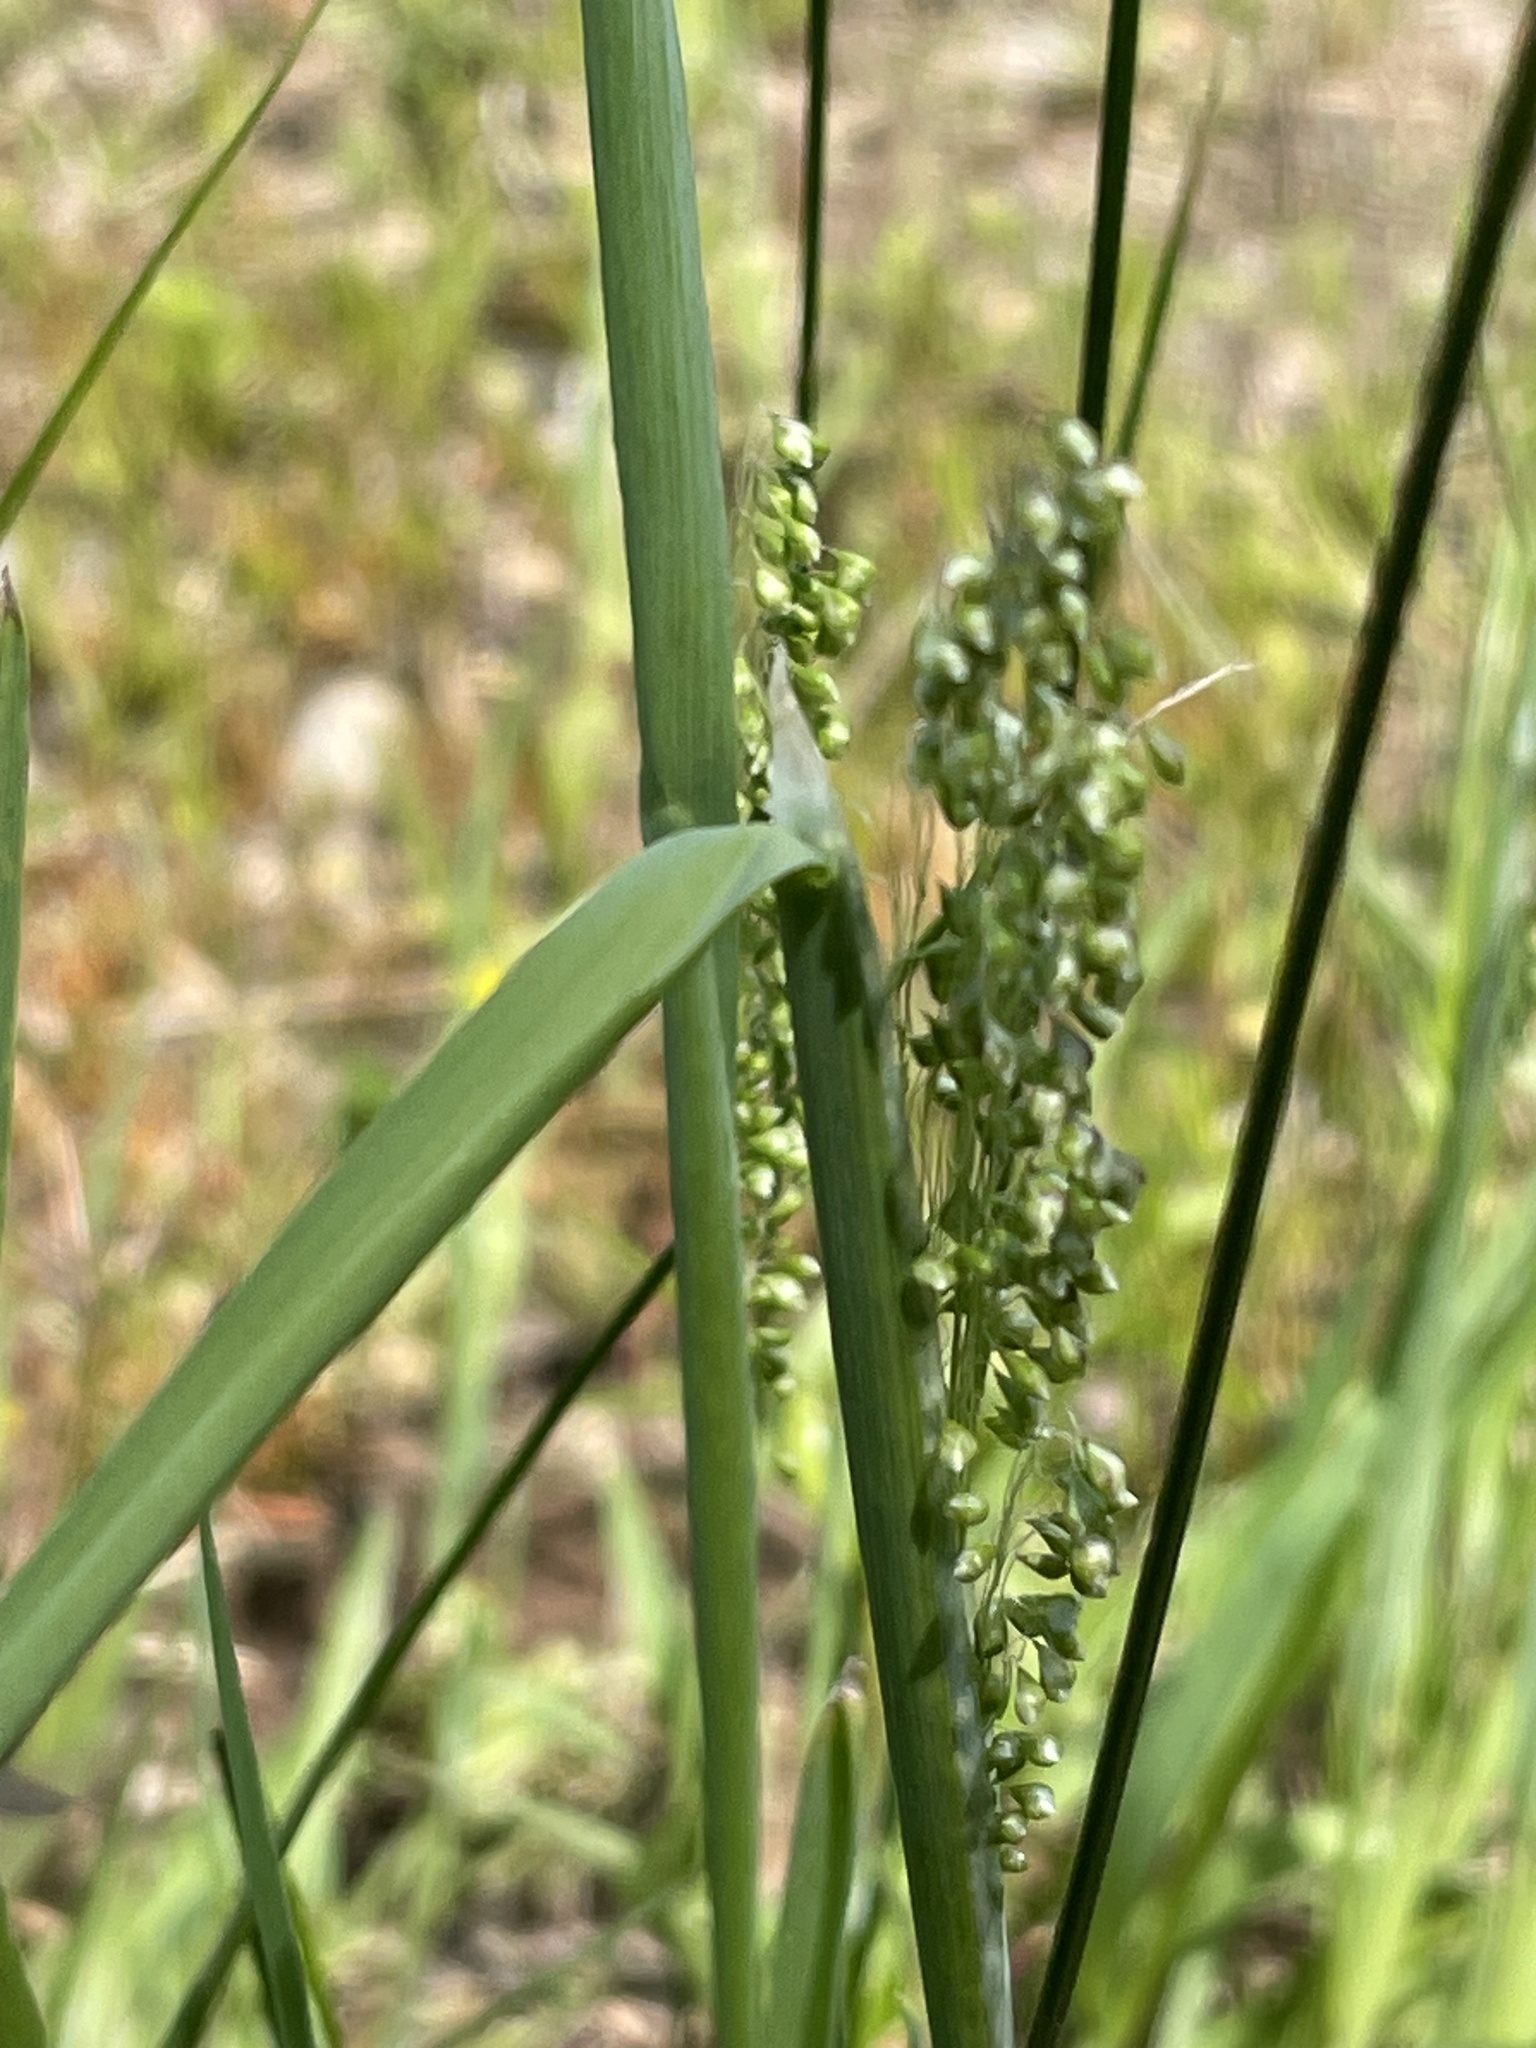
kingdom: Plantae
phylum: Tracheophyta
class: Liliopsida
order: Poales
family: Poaceae
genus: Briza
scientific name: Briza minor
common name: Lesser quaking-grass
